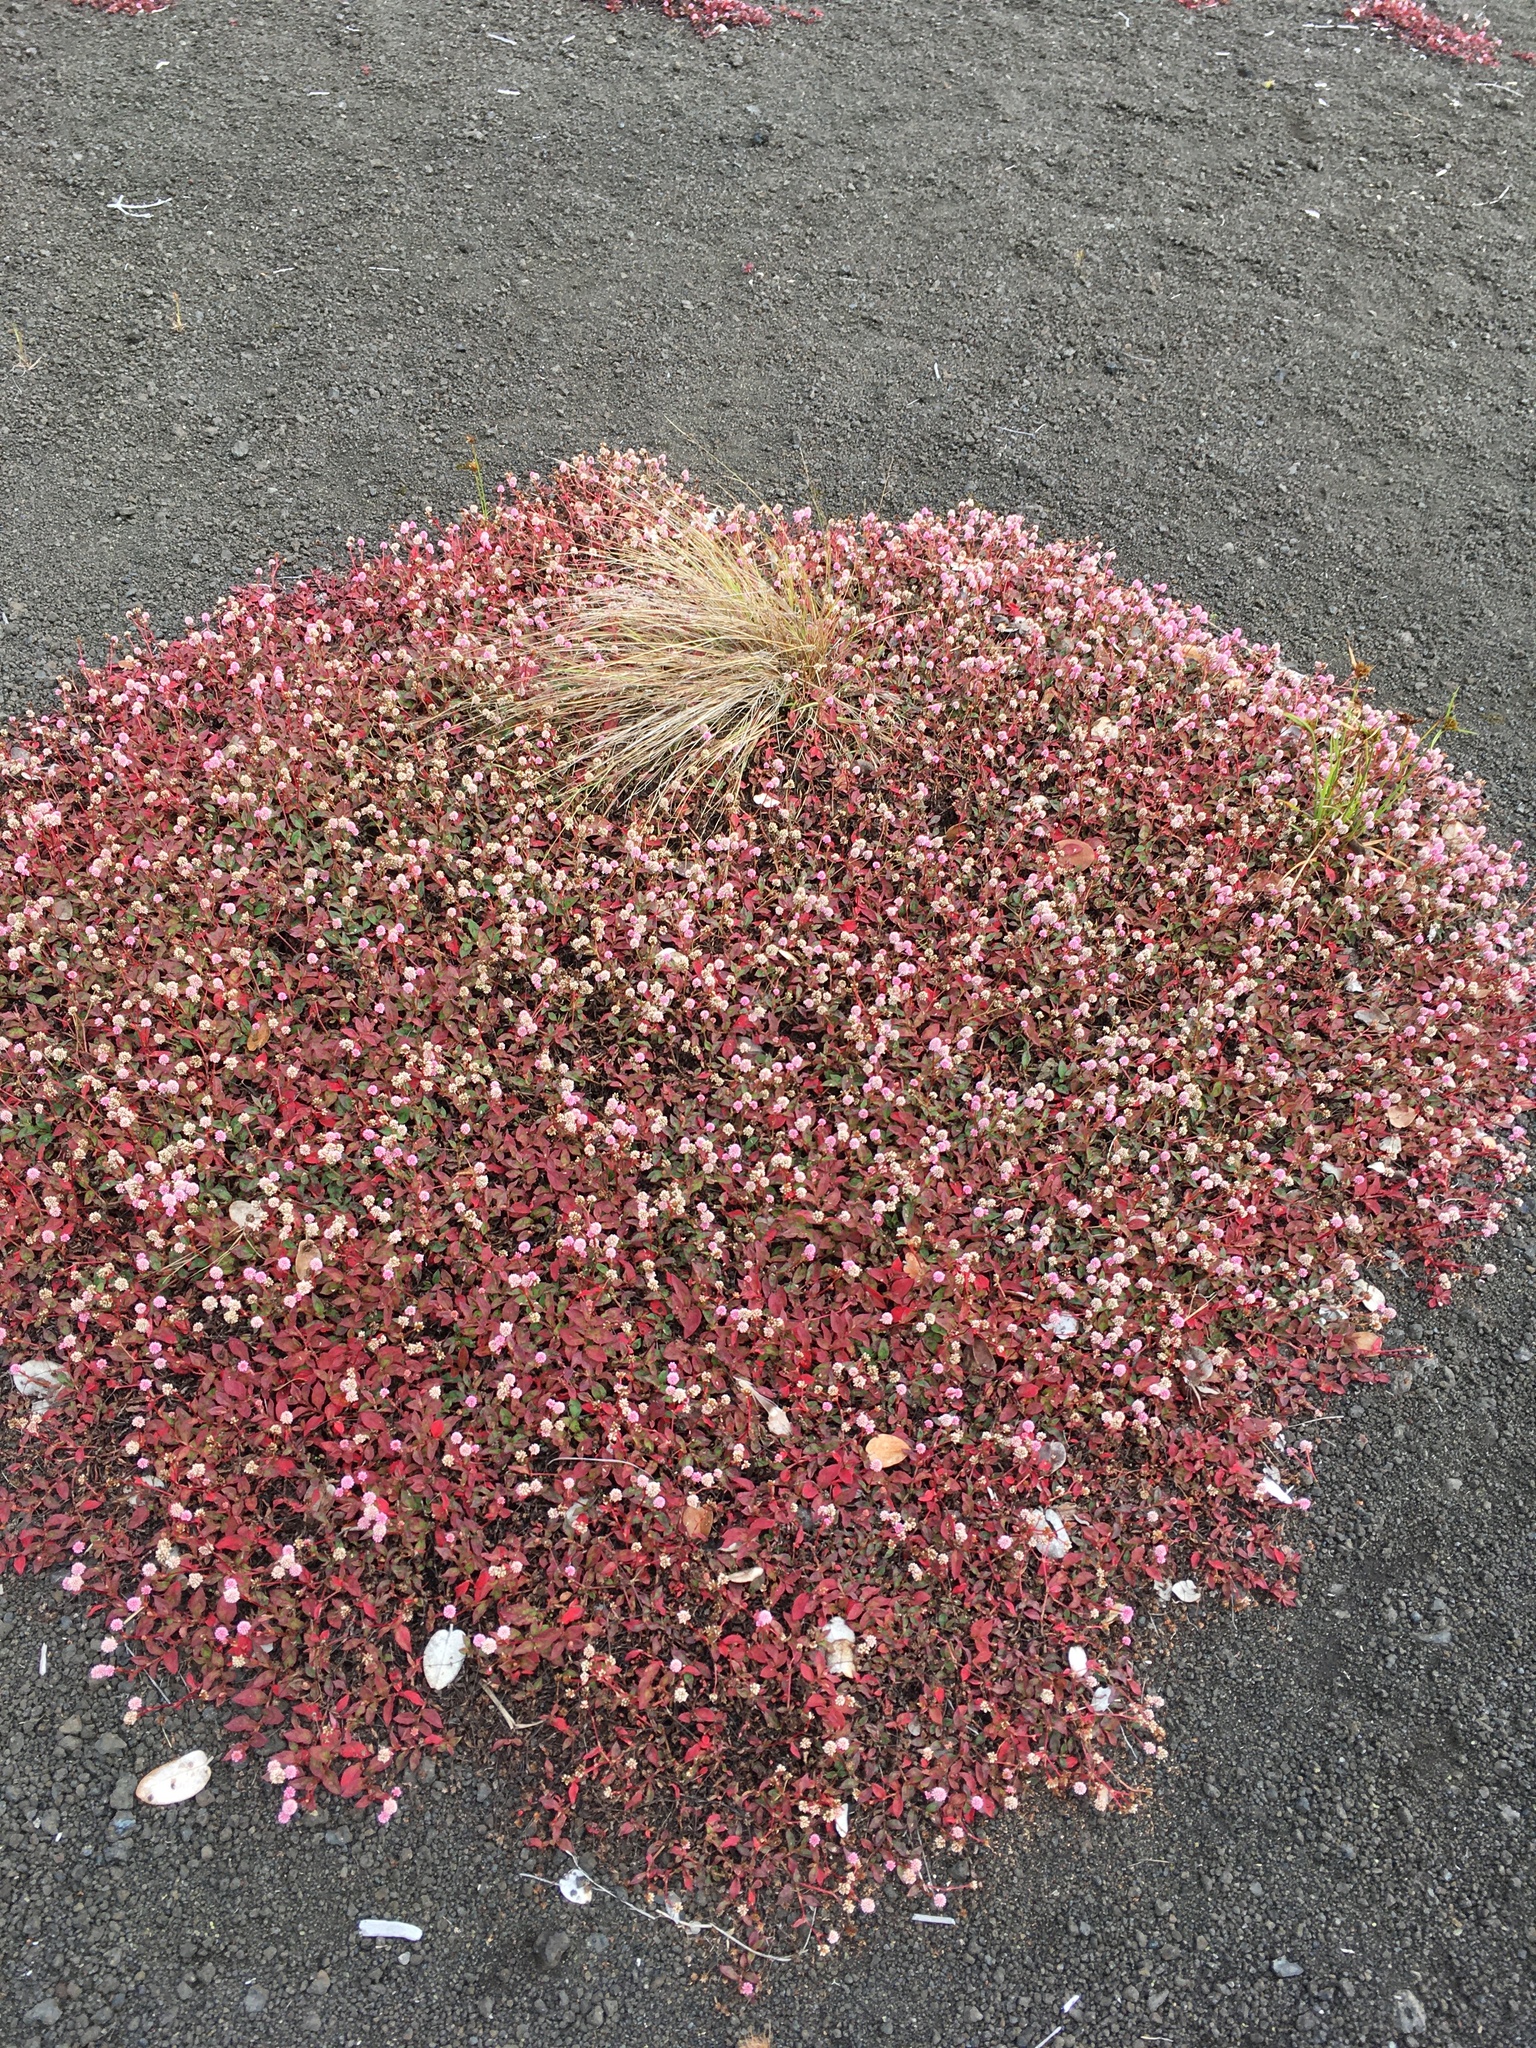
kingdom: Plantae
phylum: Tracheophyta
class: Magnoliopsida
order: Caryophyllales
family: Polygonaceae
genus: Persicaria
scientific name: Persicaria capitata
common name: Pinkhead smartweed
